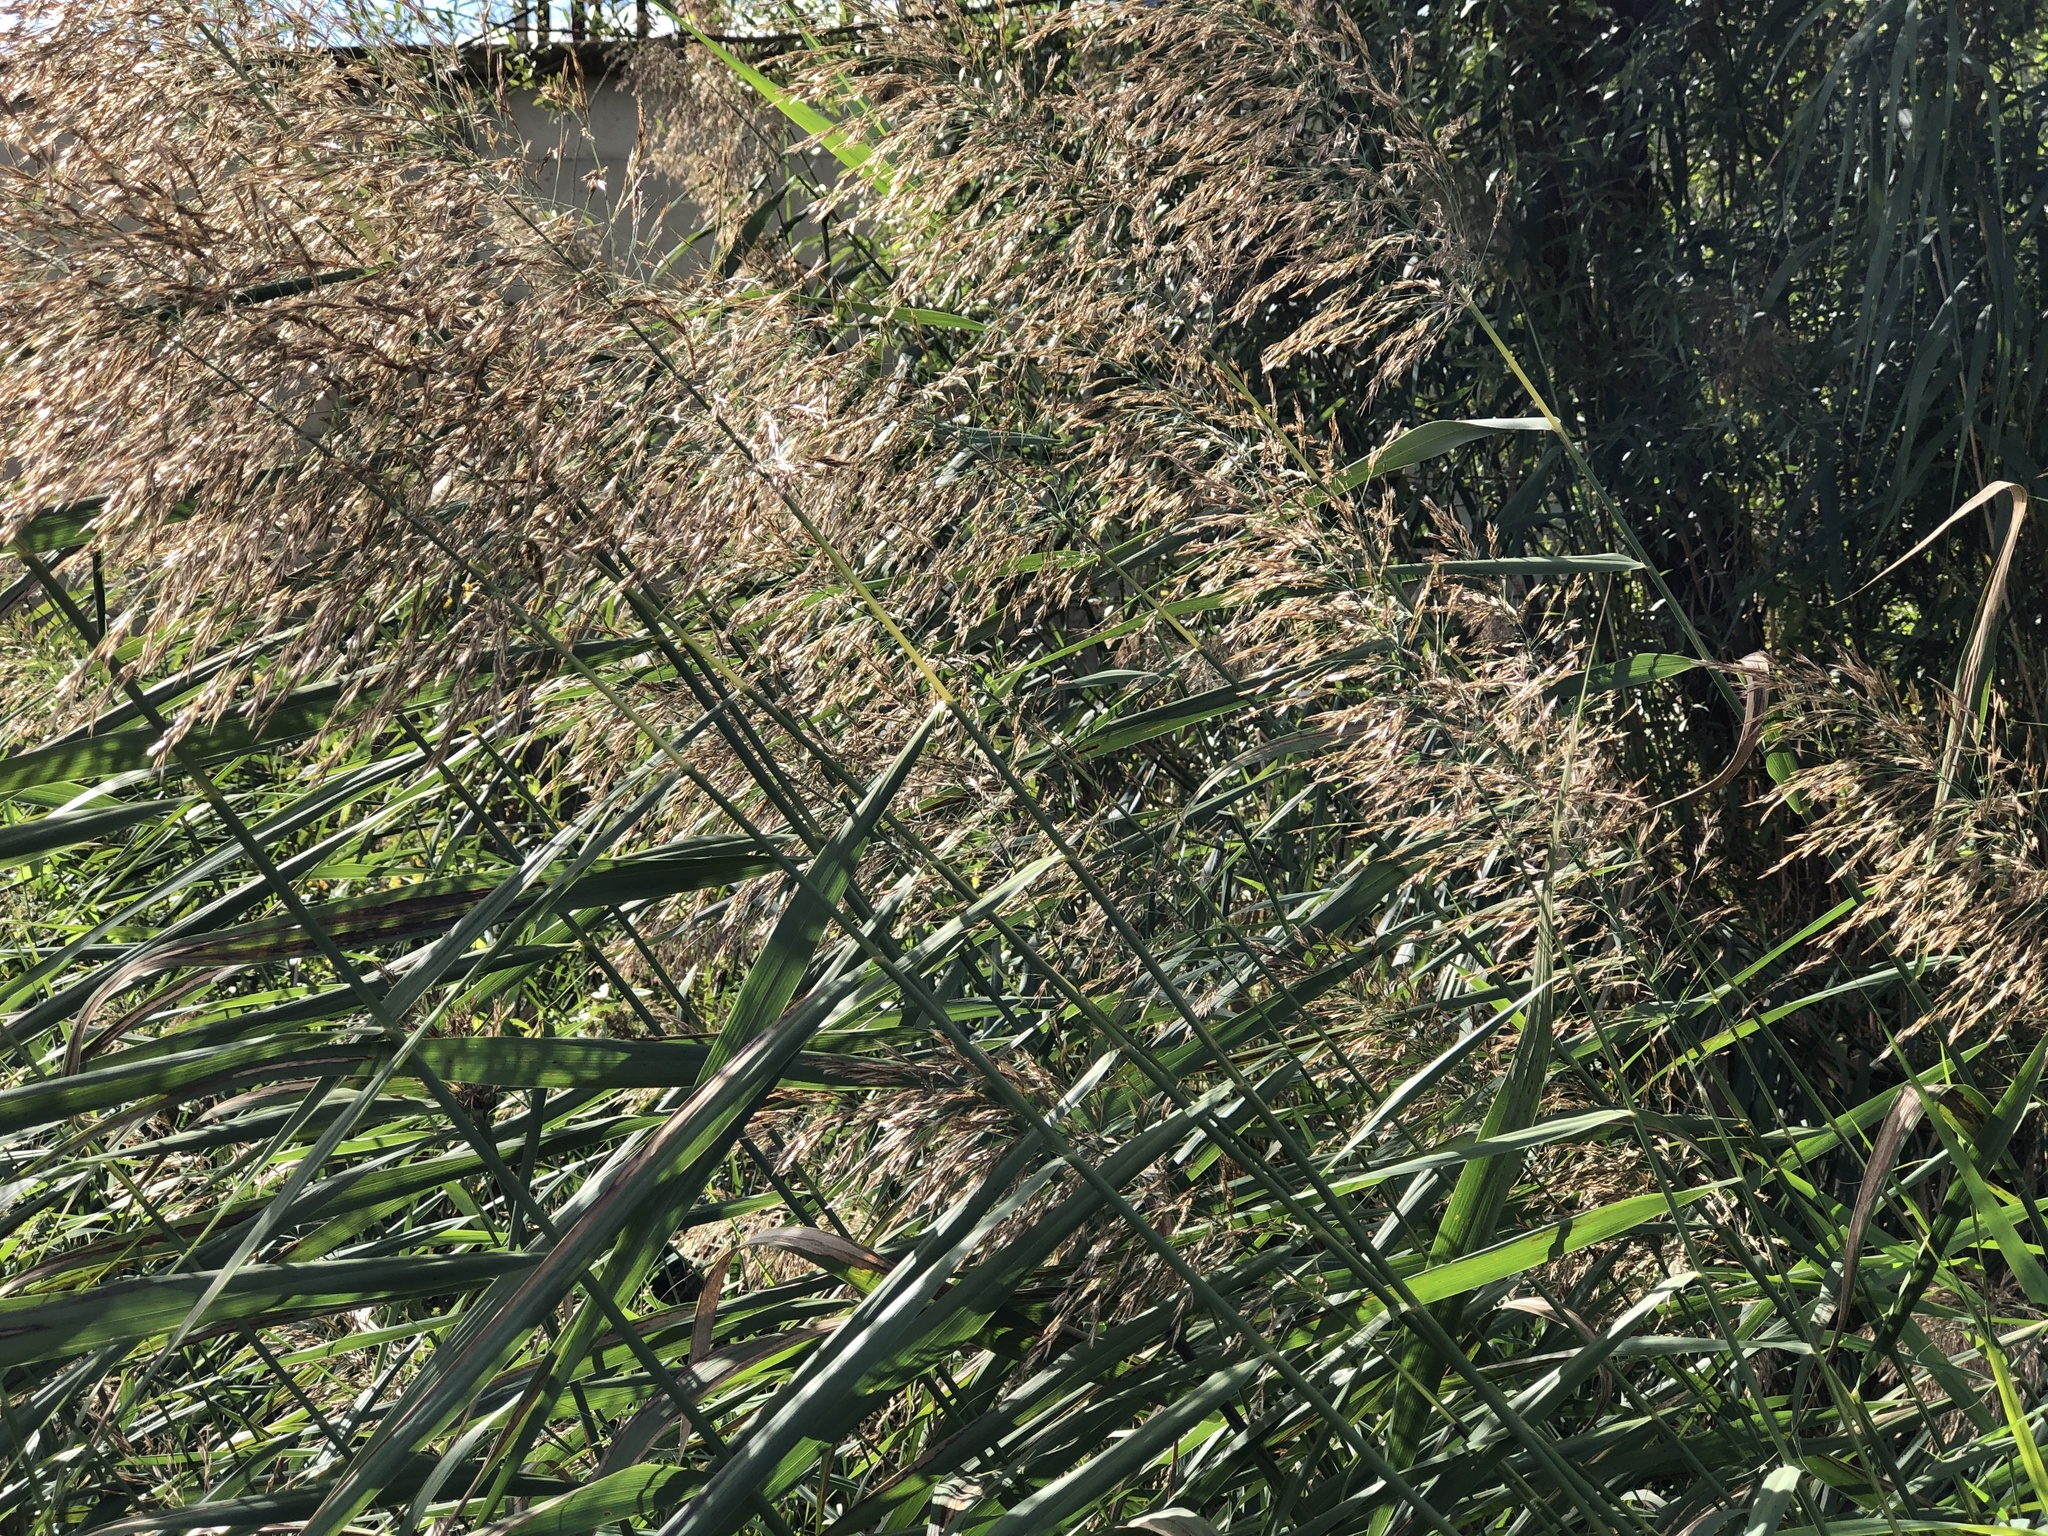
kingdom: Plantae
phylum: Tracheophyta
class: Liliopsida
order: Poales
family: Poaceae
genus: Phragmites
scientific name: Phragmites australis
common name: Common reed
